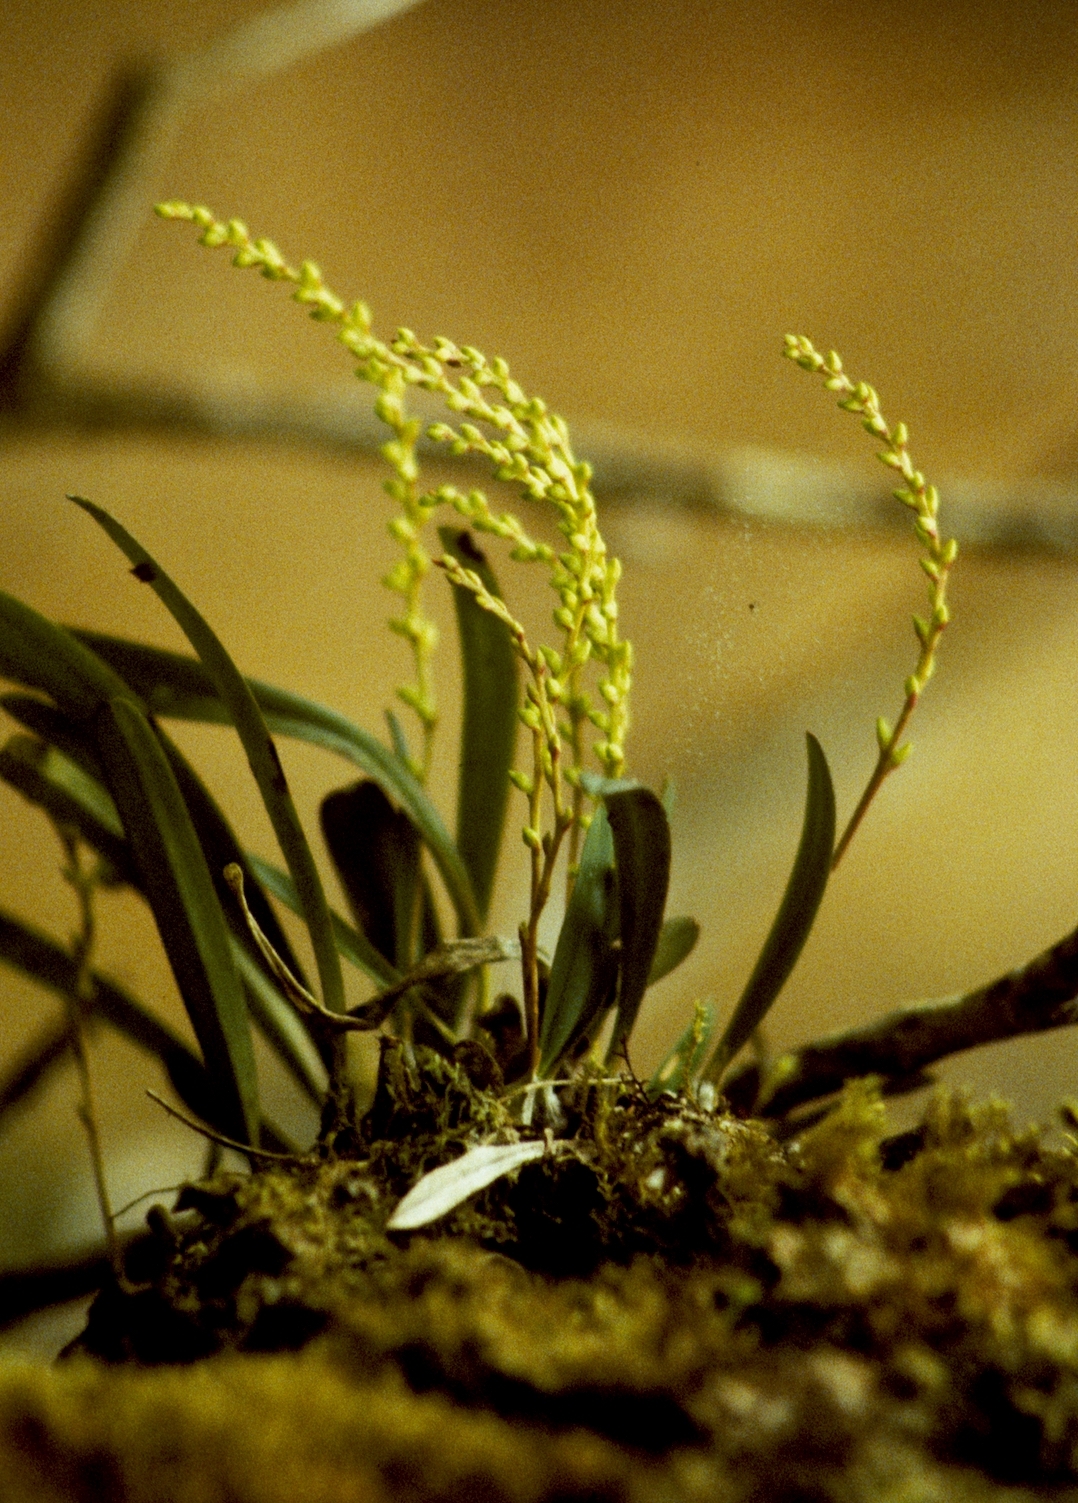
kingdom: Plantae
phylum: Tracheophyta
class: Liliopsida
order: Asparagales
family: Orchidaceae
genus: Bulbophyllum
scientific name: Bulbophyllum baronii
